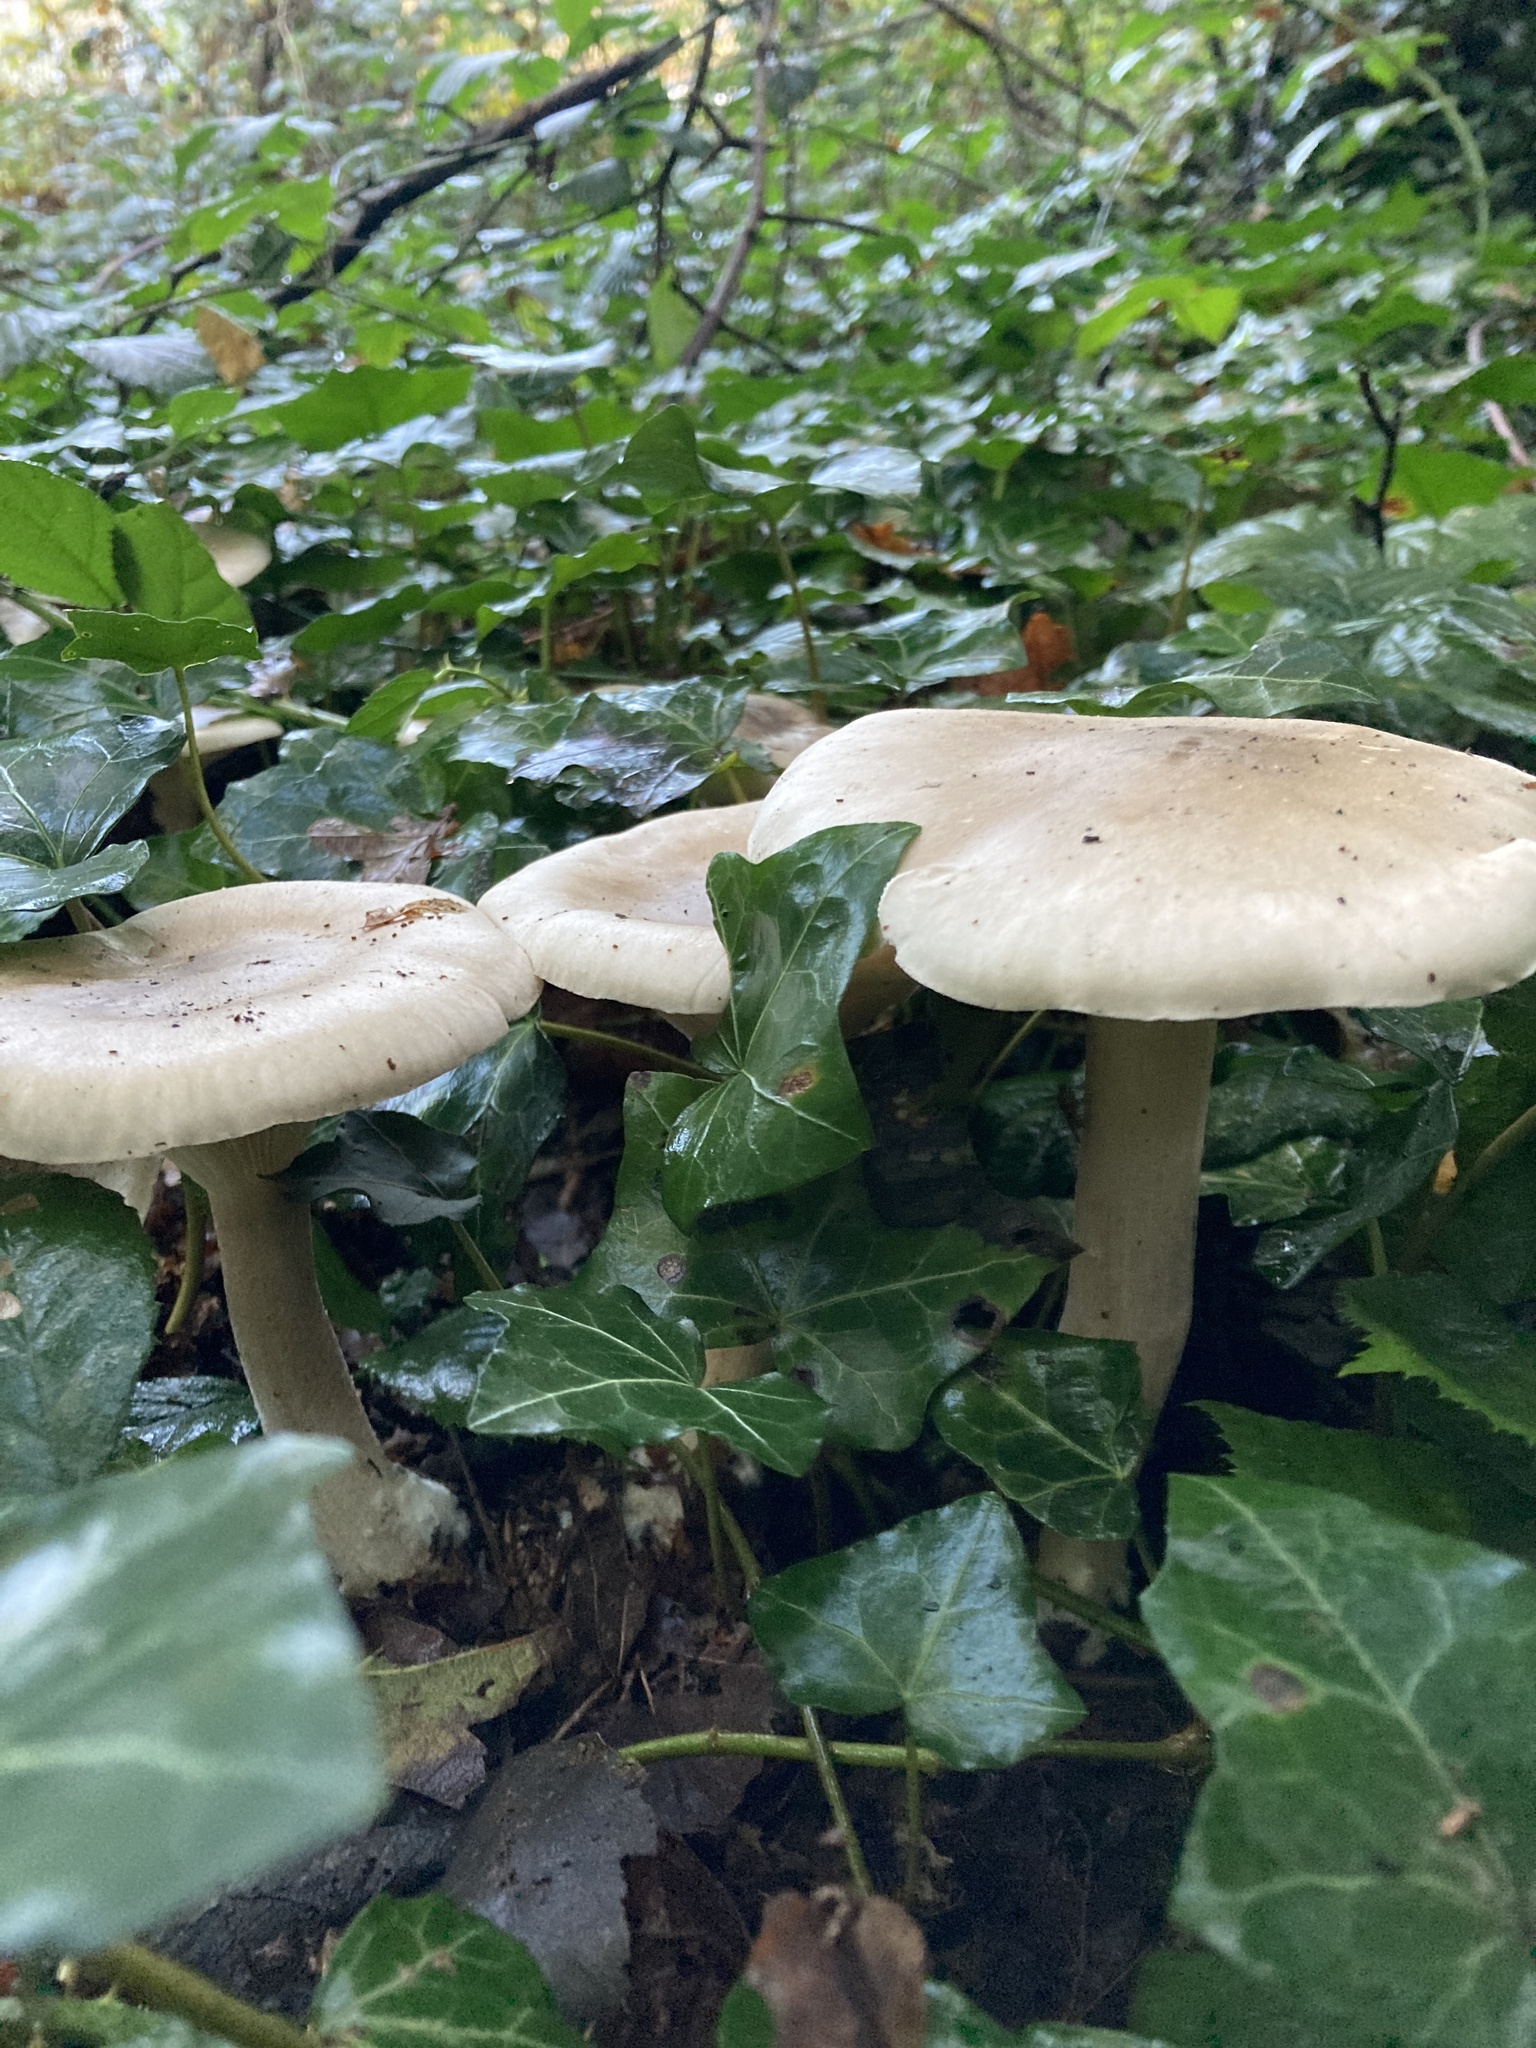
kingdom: Fungi
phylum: Basidiomycota
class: Agaricomycetes
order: Agaricales
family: Tricholomataceae
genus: Clitocybe
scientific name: Clitocybe nebularis
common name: Clouded agaric
